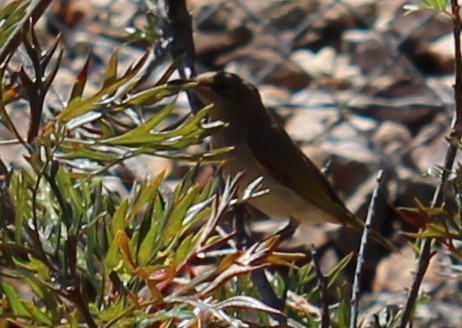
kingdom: Animalia
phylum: Chordata
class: Aves
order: Passeriformes
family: Meliphagidae
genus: Lichmera
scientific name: Lichmera indistincta
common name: Brown honeyeater
